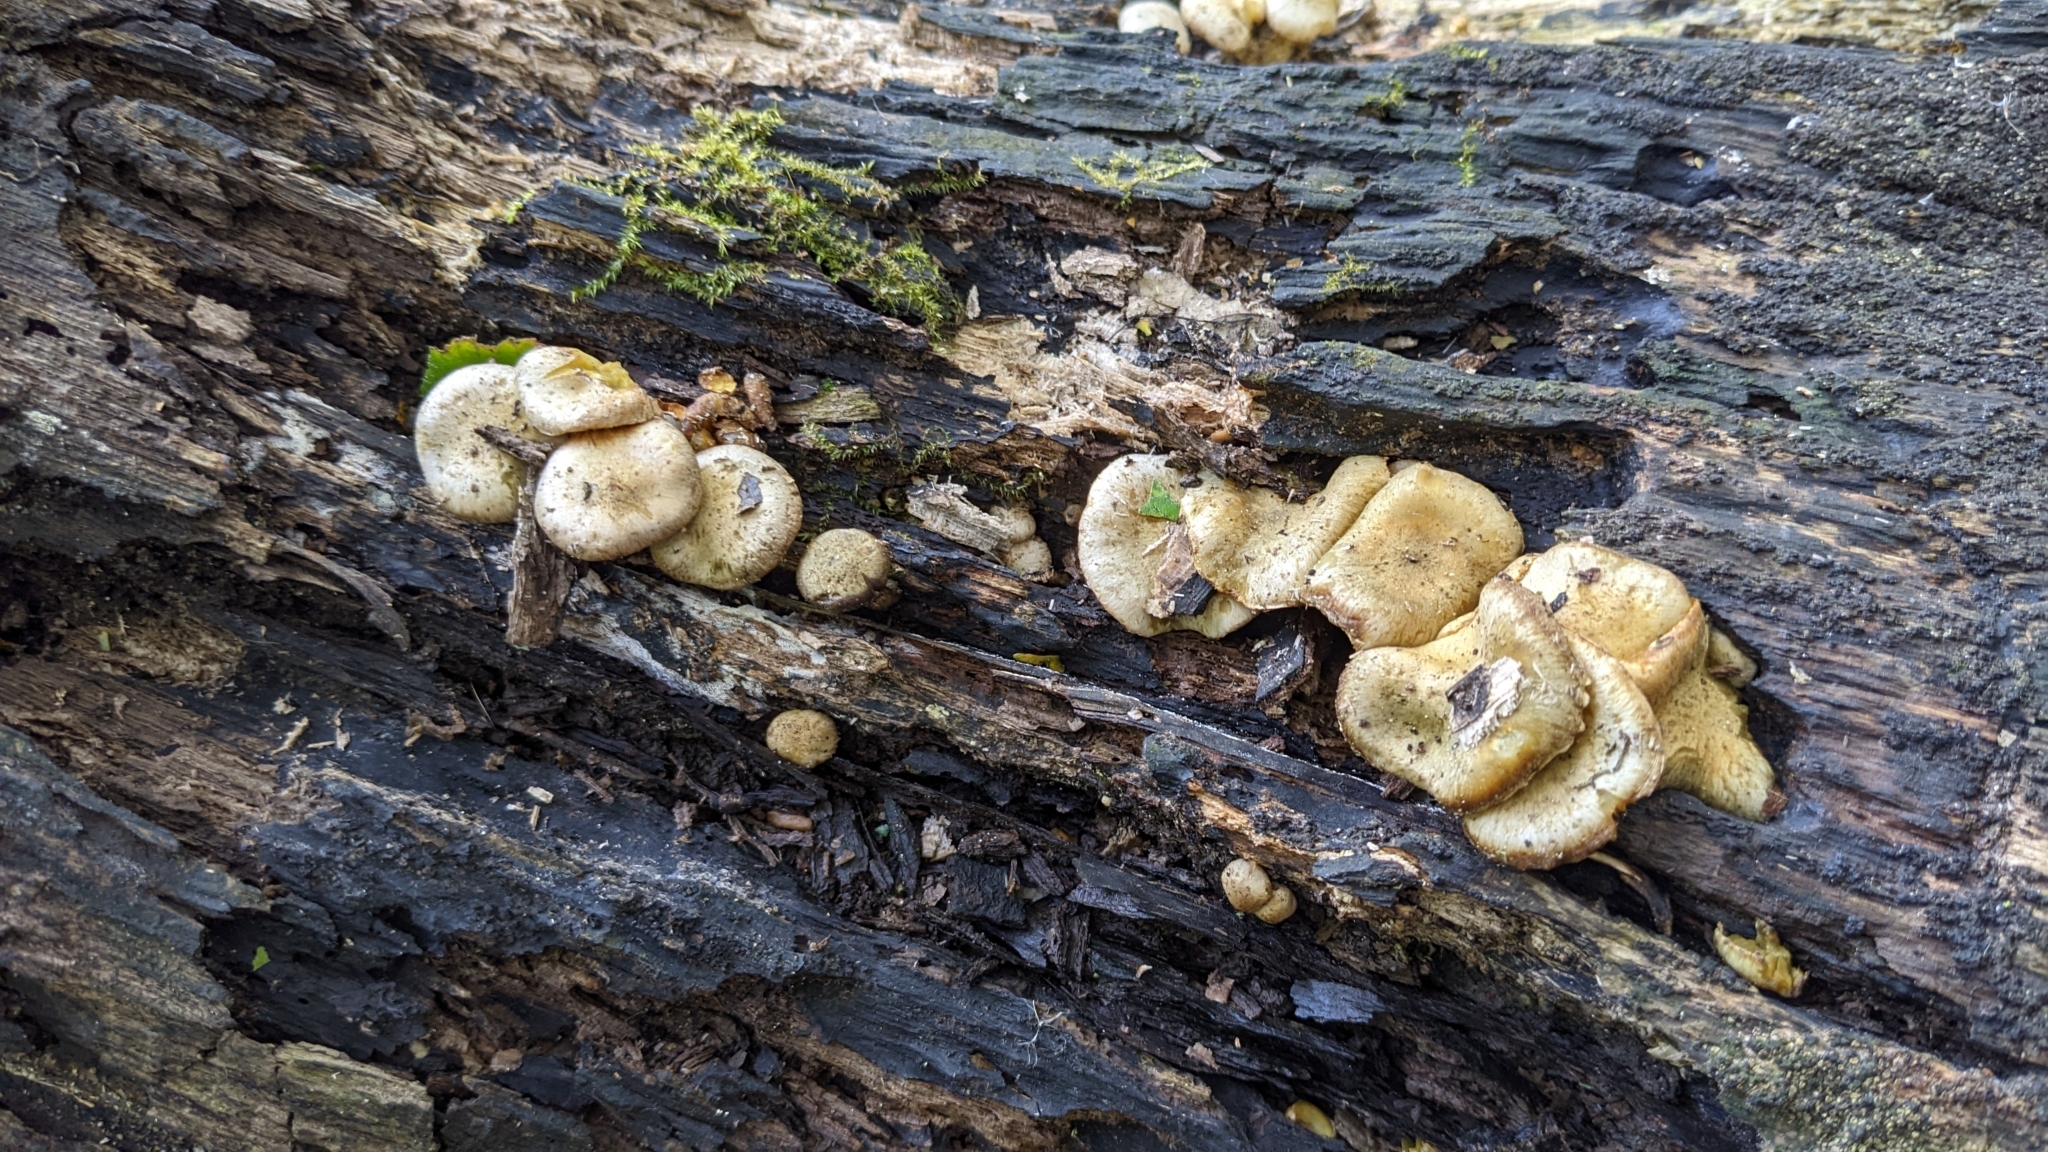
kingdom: Fungi
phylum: Basidiomycota
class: Agaricomycetes
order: Agaricales
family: Strophariaceae
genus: Pholiota
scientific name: Pholiota gummosa
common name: Sticky scalycap
